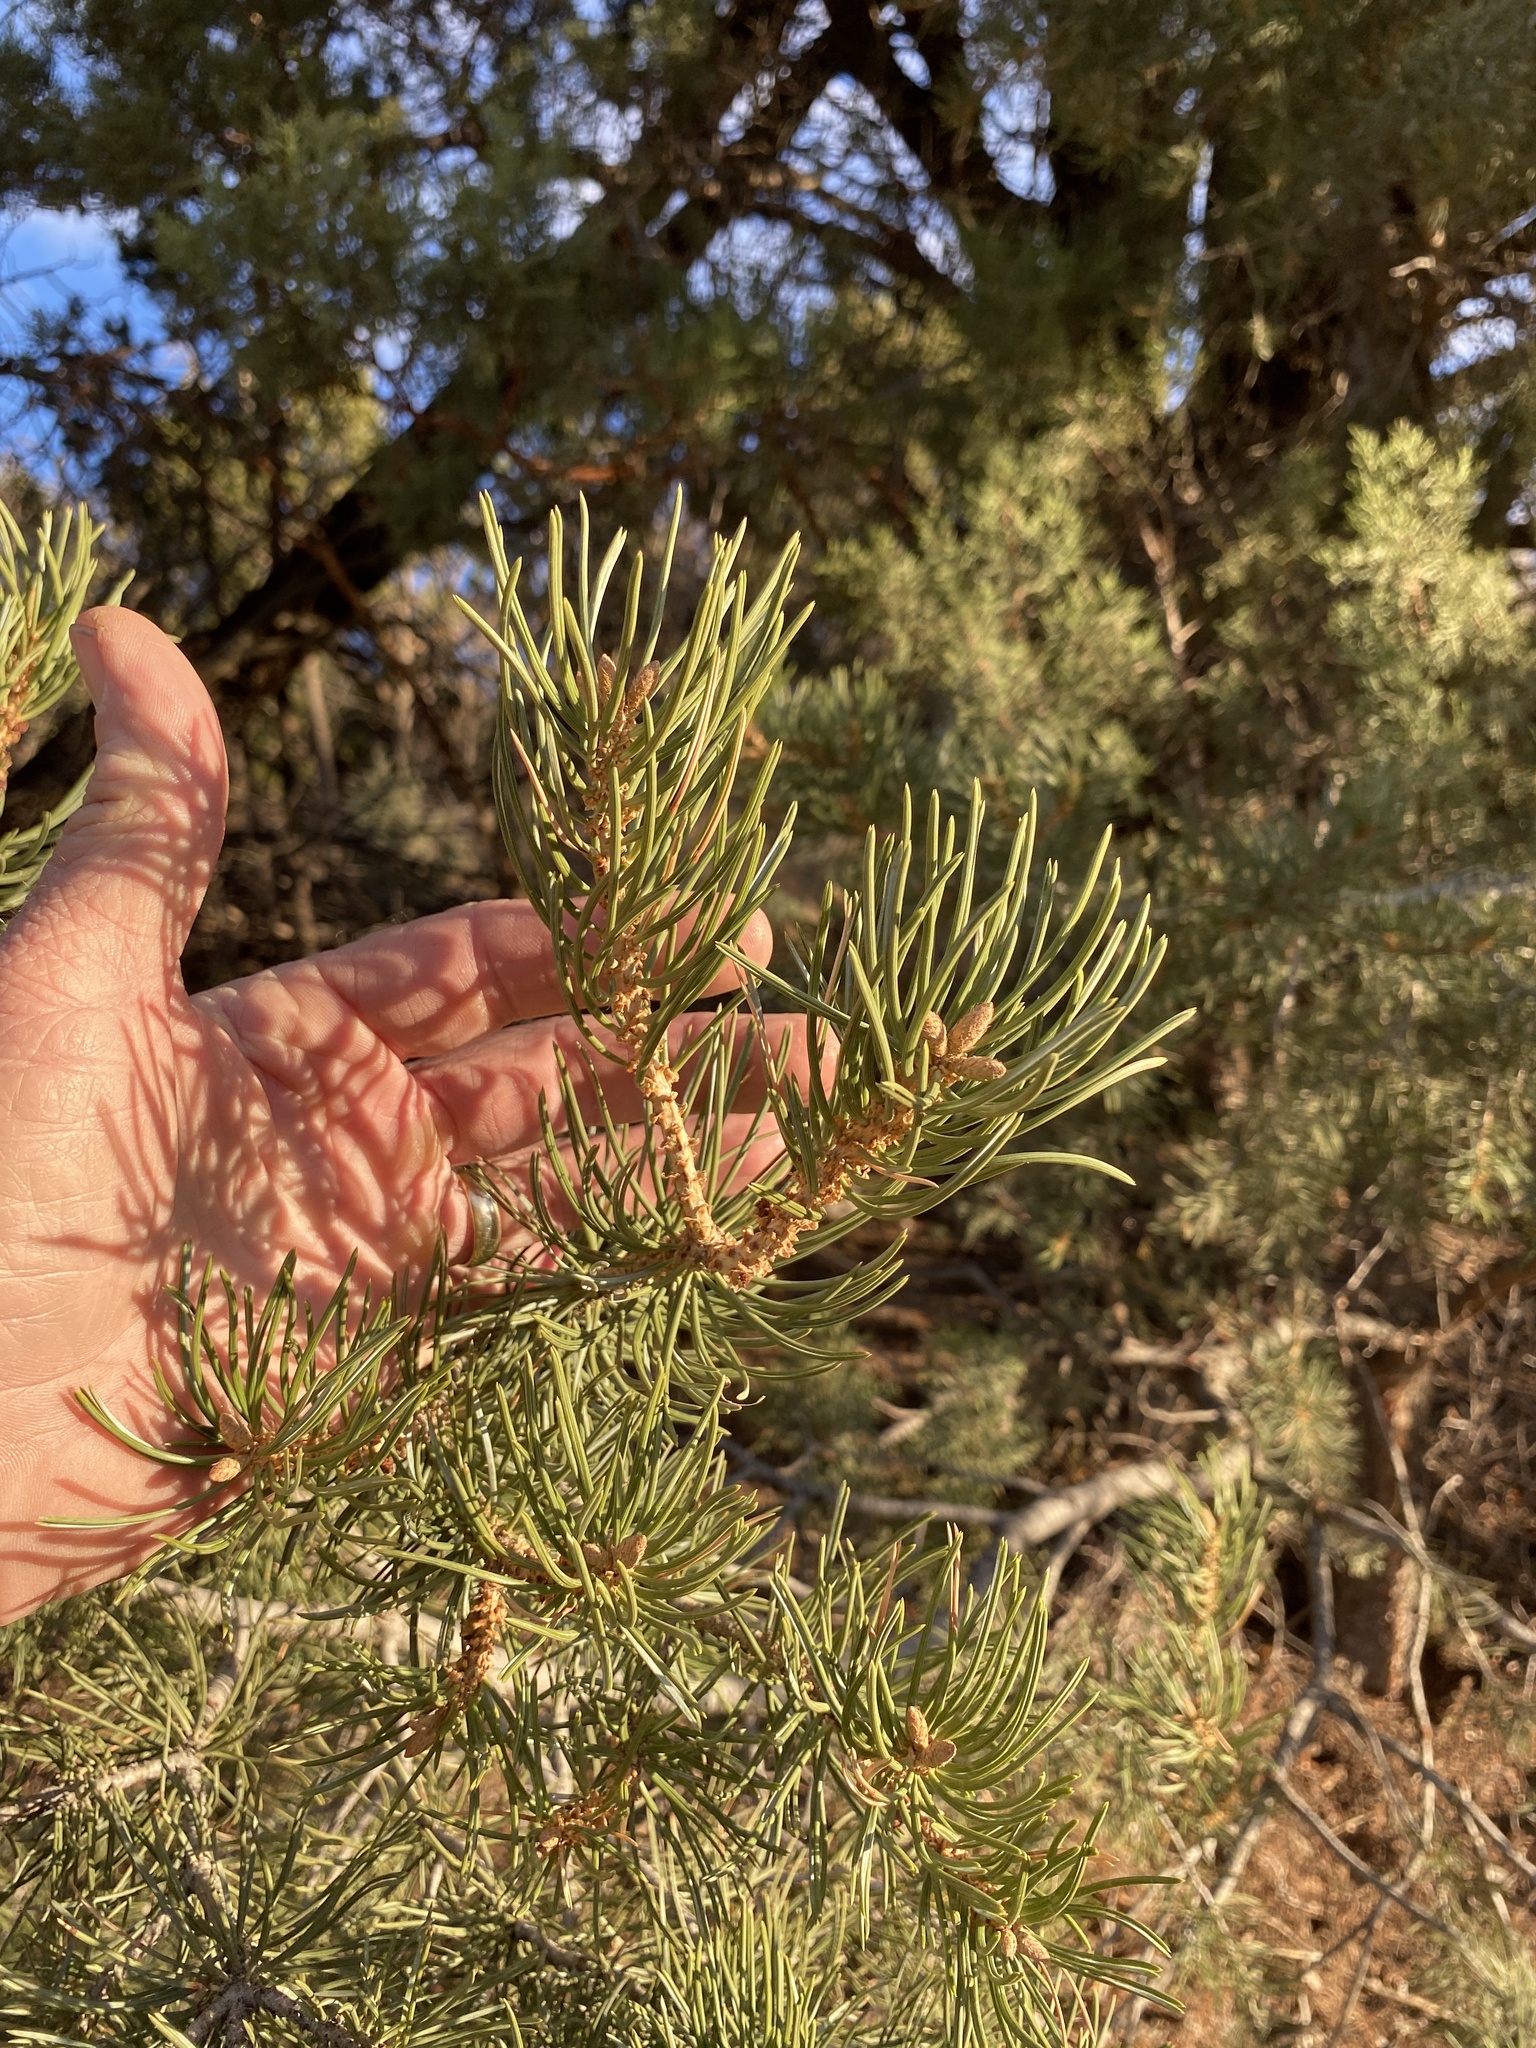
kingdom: Plantae
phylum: Tracheophyta
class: Pinopsida
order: Pinales
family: Pinaceae
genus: Pinus
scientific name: Pinus edulis
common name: Colorado pinyon
